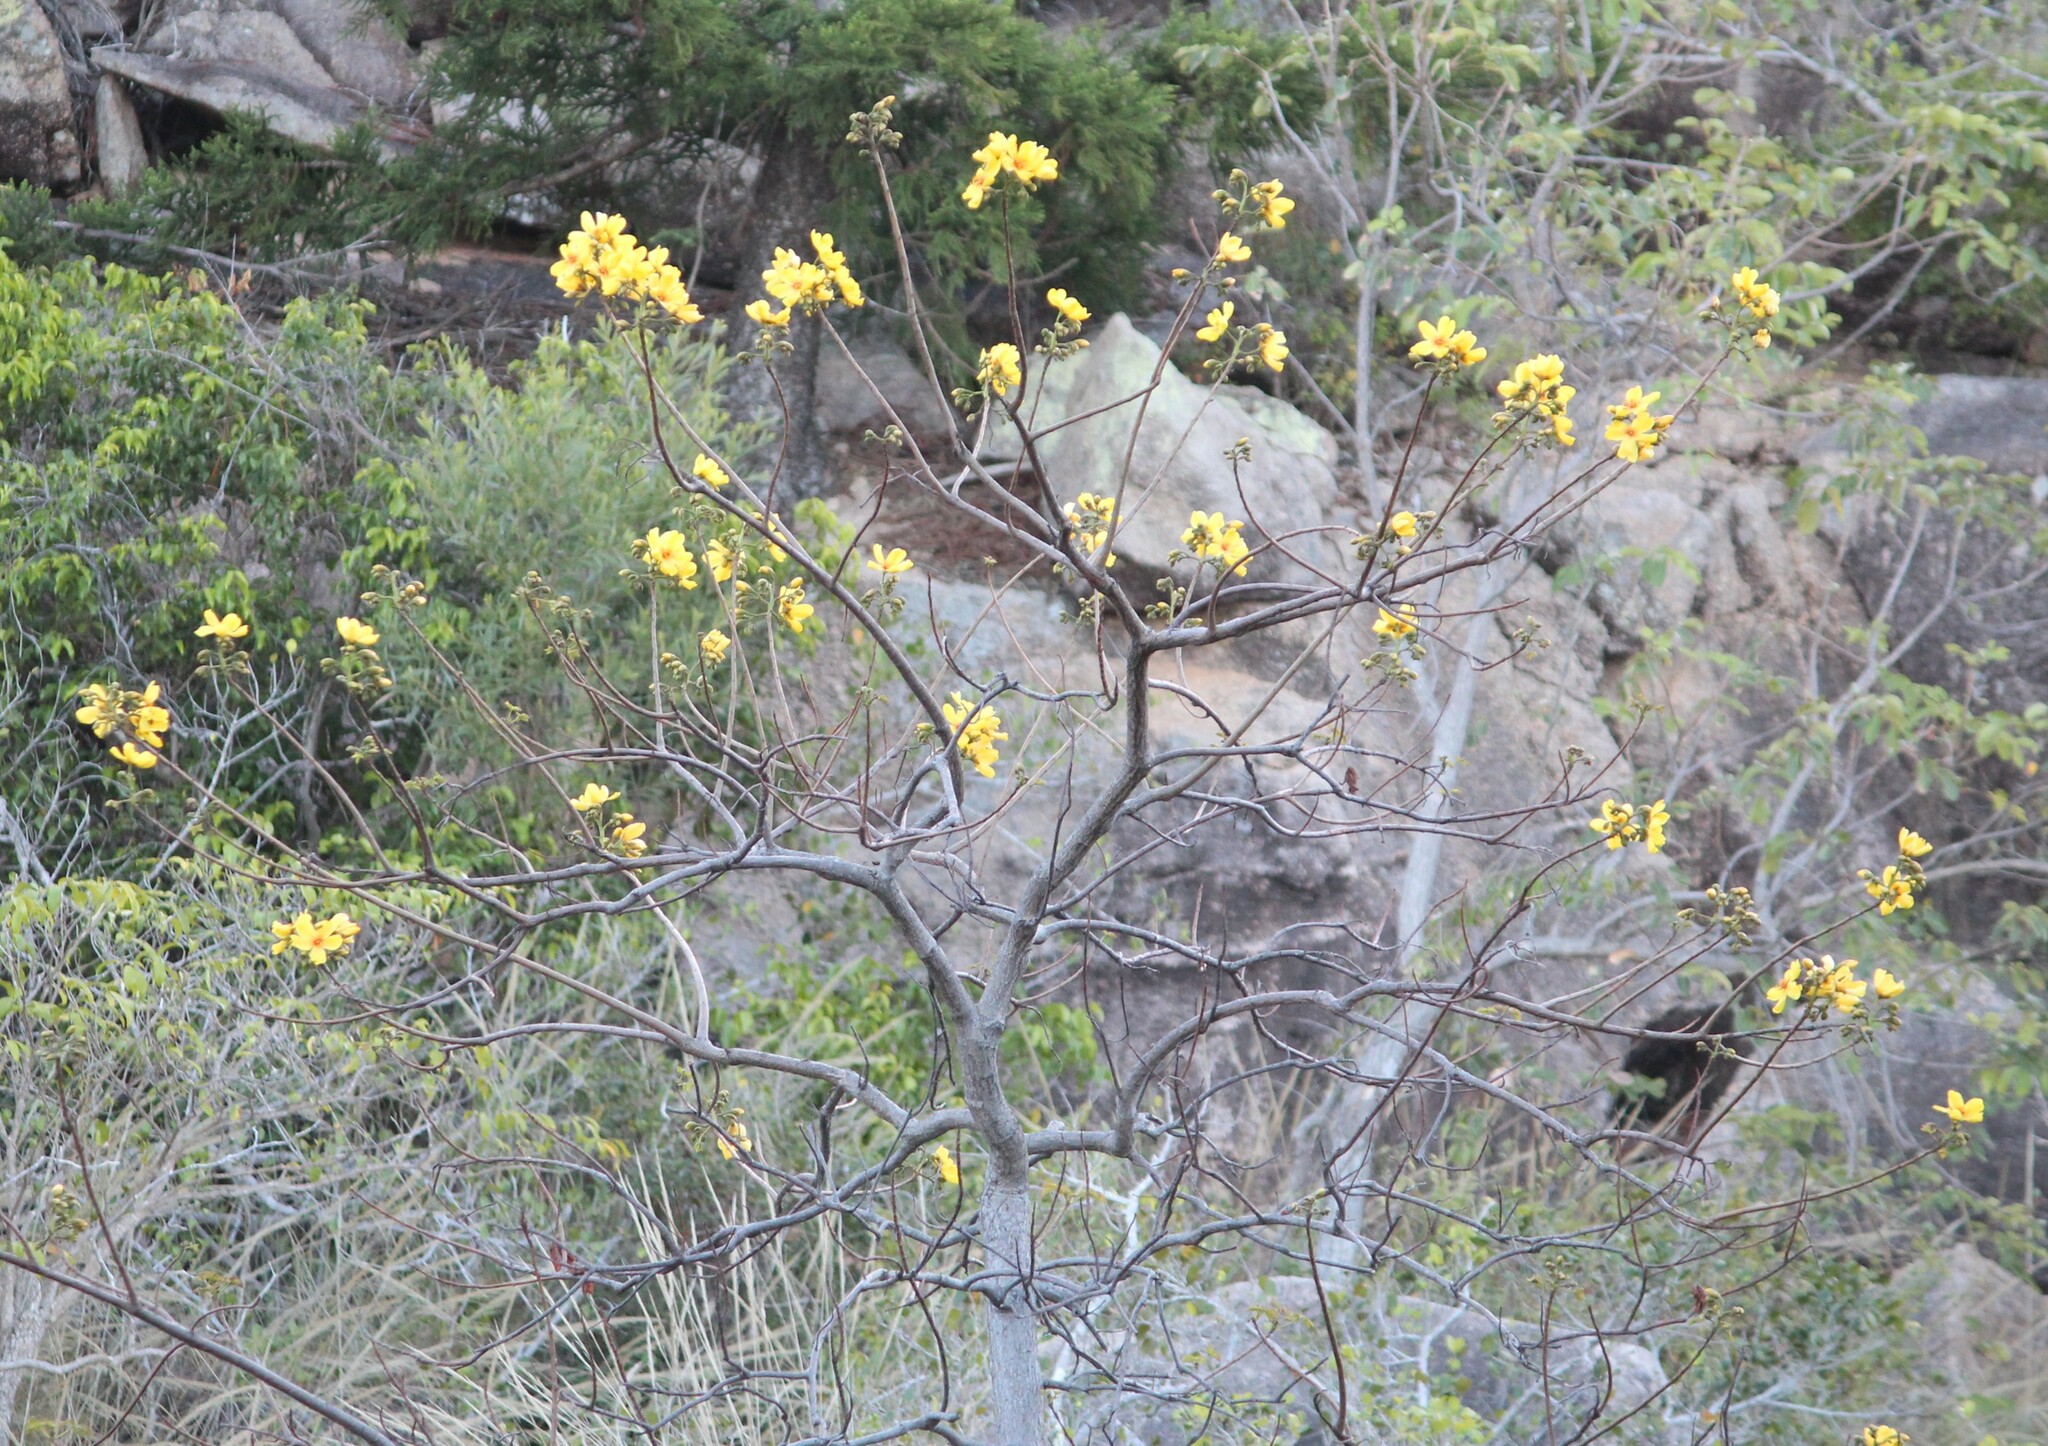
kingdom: Plantae
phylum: Tracheophyta
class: Magnoliopsida
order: Malvales
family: Cochlospermaceae
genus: Cochlospermum
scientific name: Cochlospermum gillivraei
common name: Cottontree
